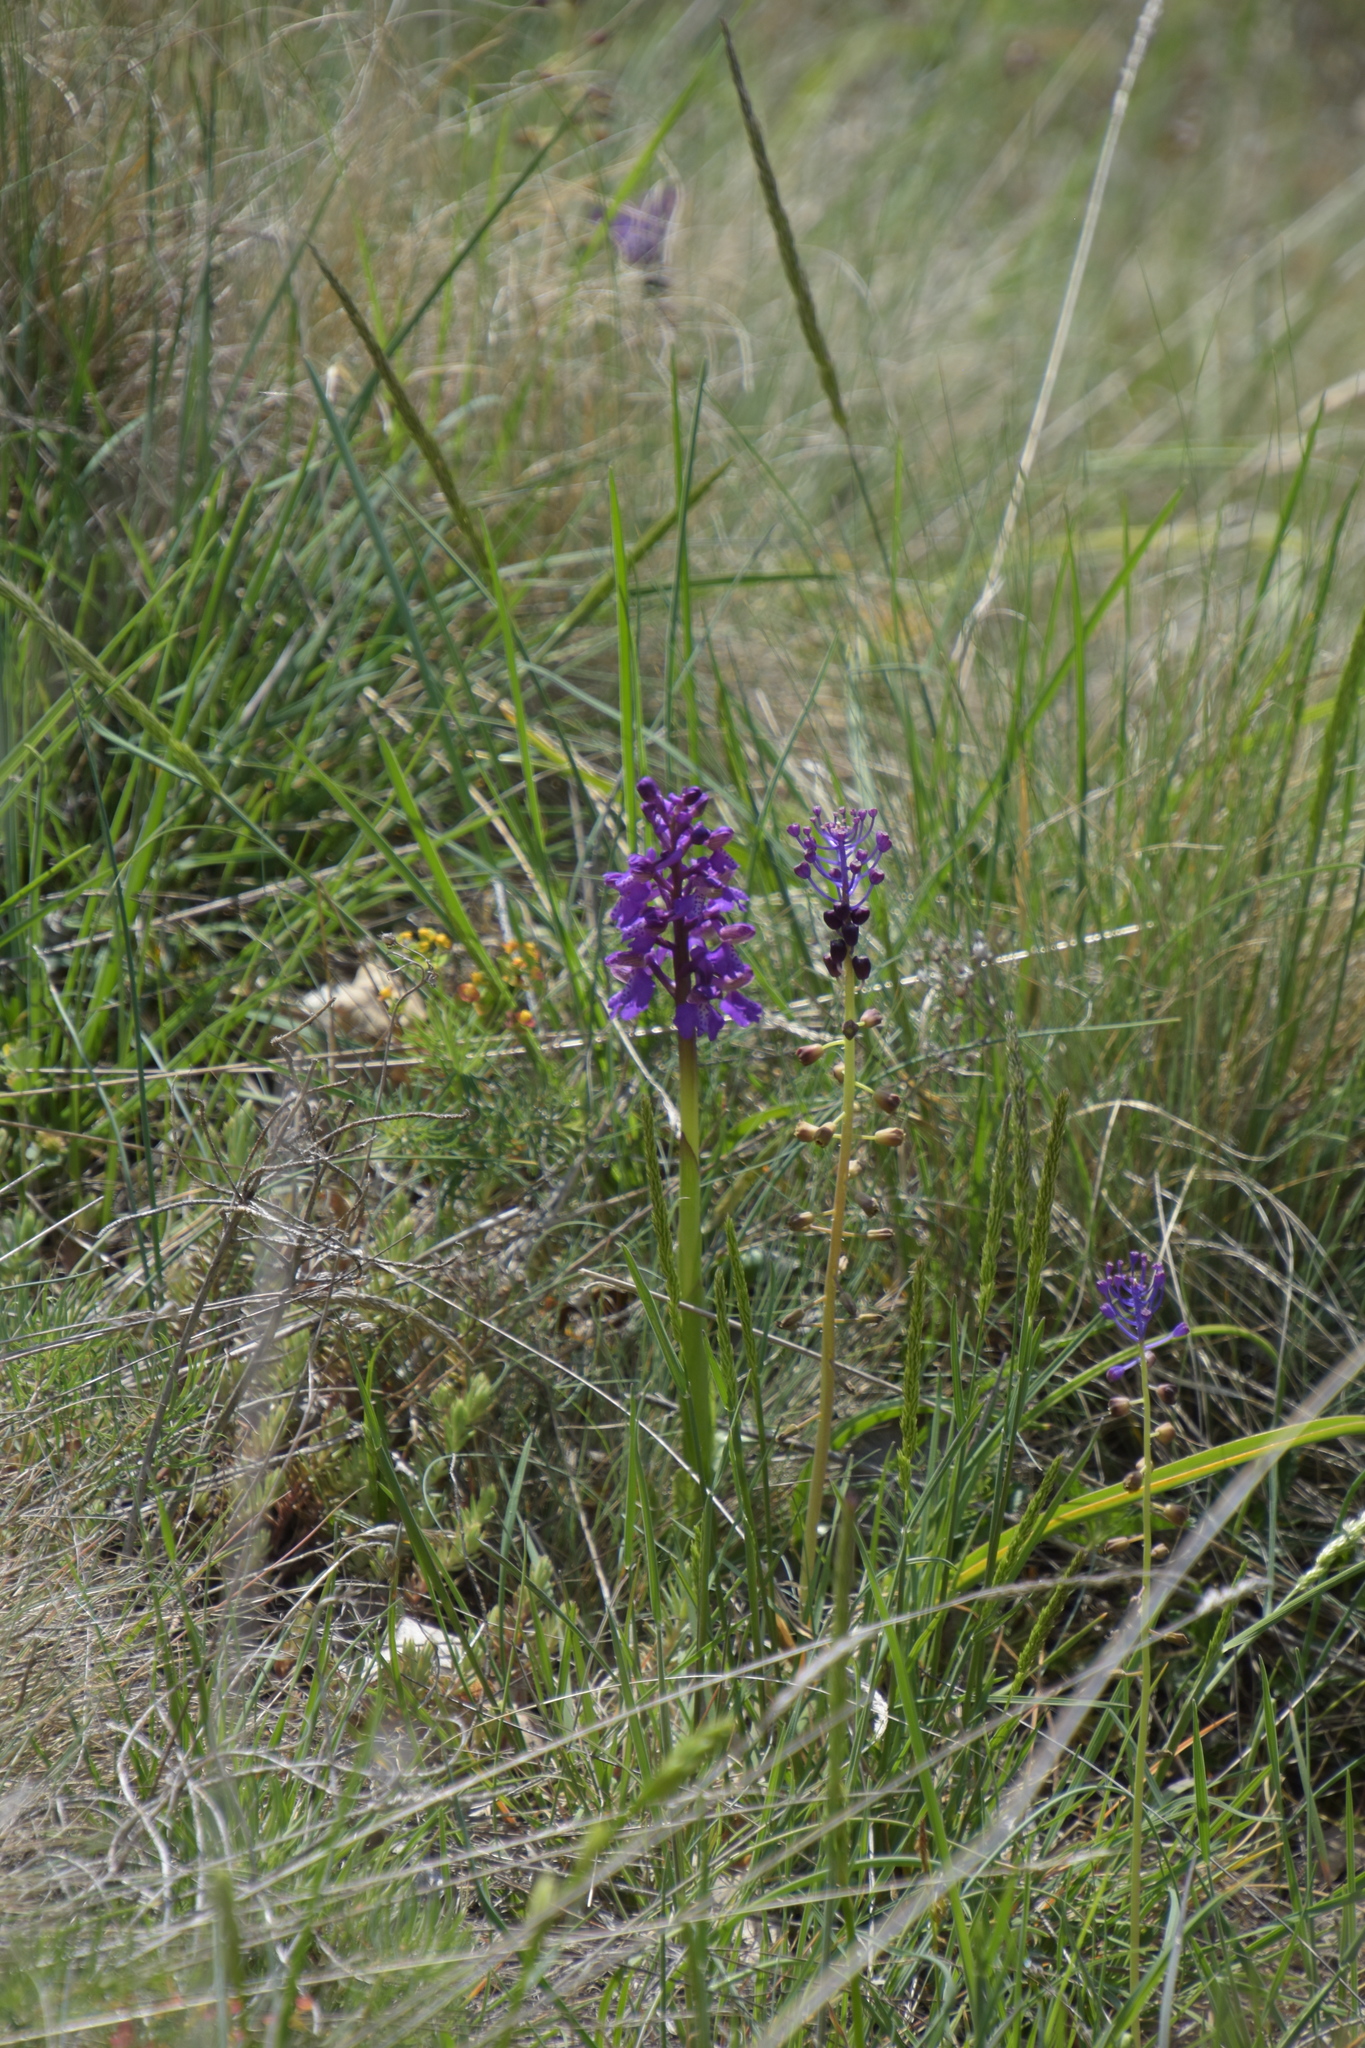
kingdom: Plantae
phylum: Tracheophyta
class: Liliopsida
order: Asparagales
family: Orchidaceae
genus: Anacamptis
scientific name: Anacamptis morio
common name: Green-winged orchid
